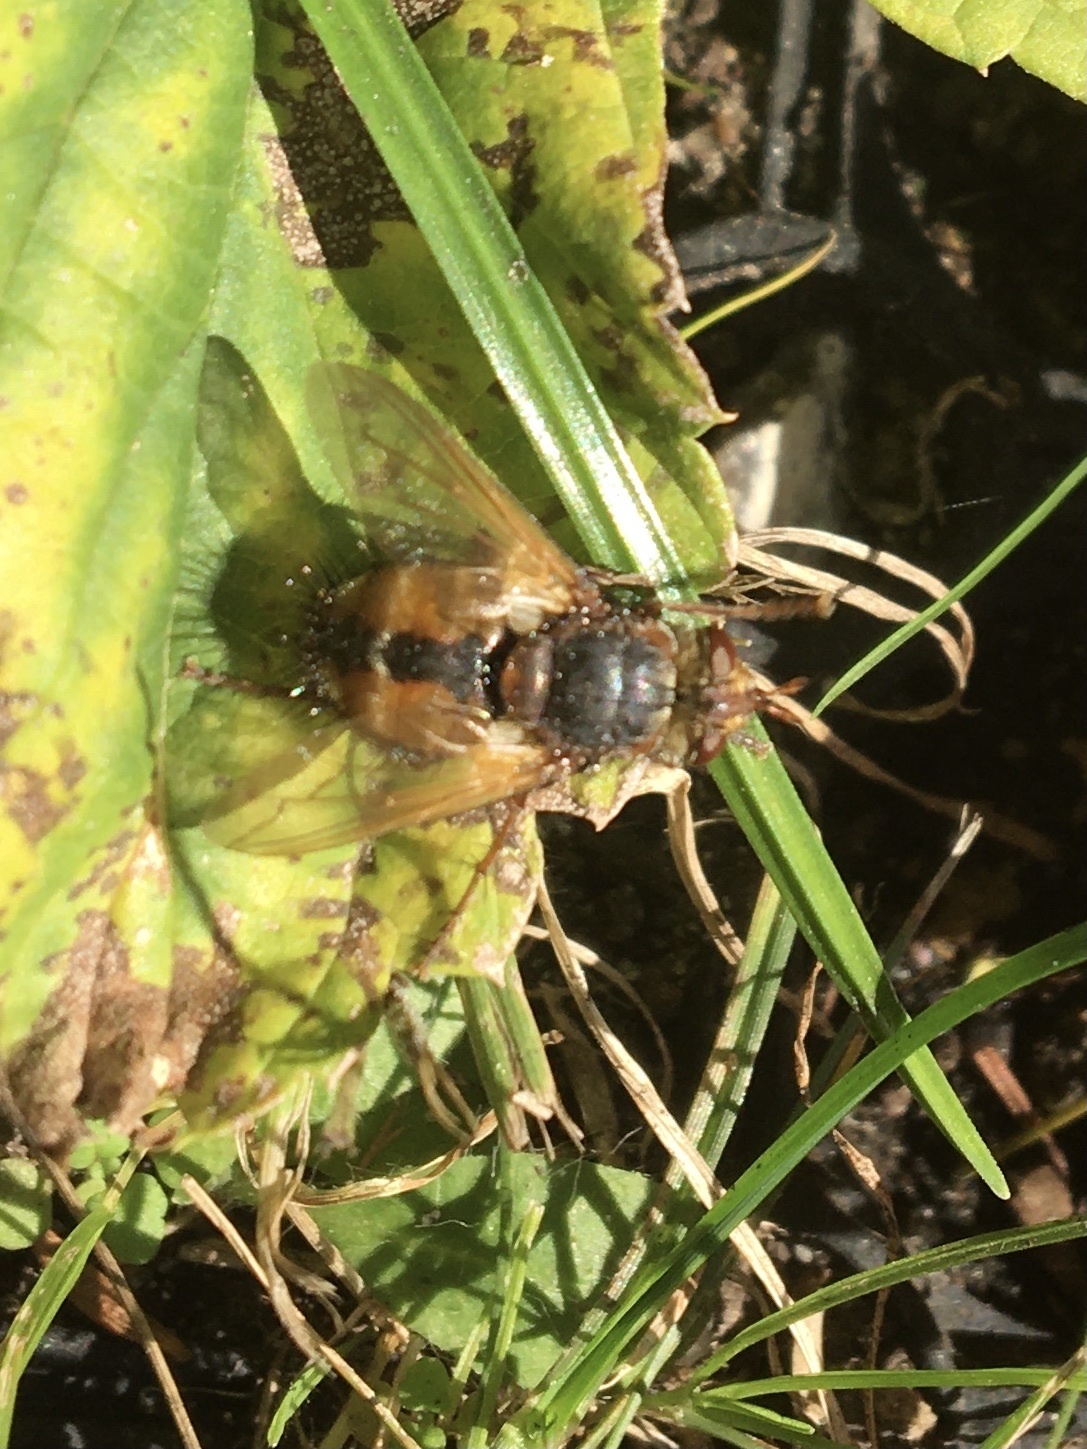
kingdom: Animalia
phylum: Arthropoda
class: Insecta
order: Diptera
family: Tachinidae
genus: Tachina
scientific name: Tachina fera
